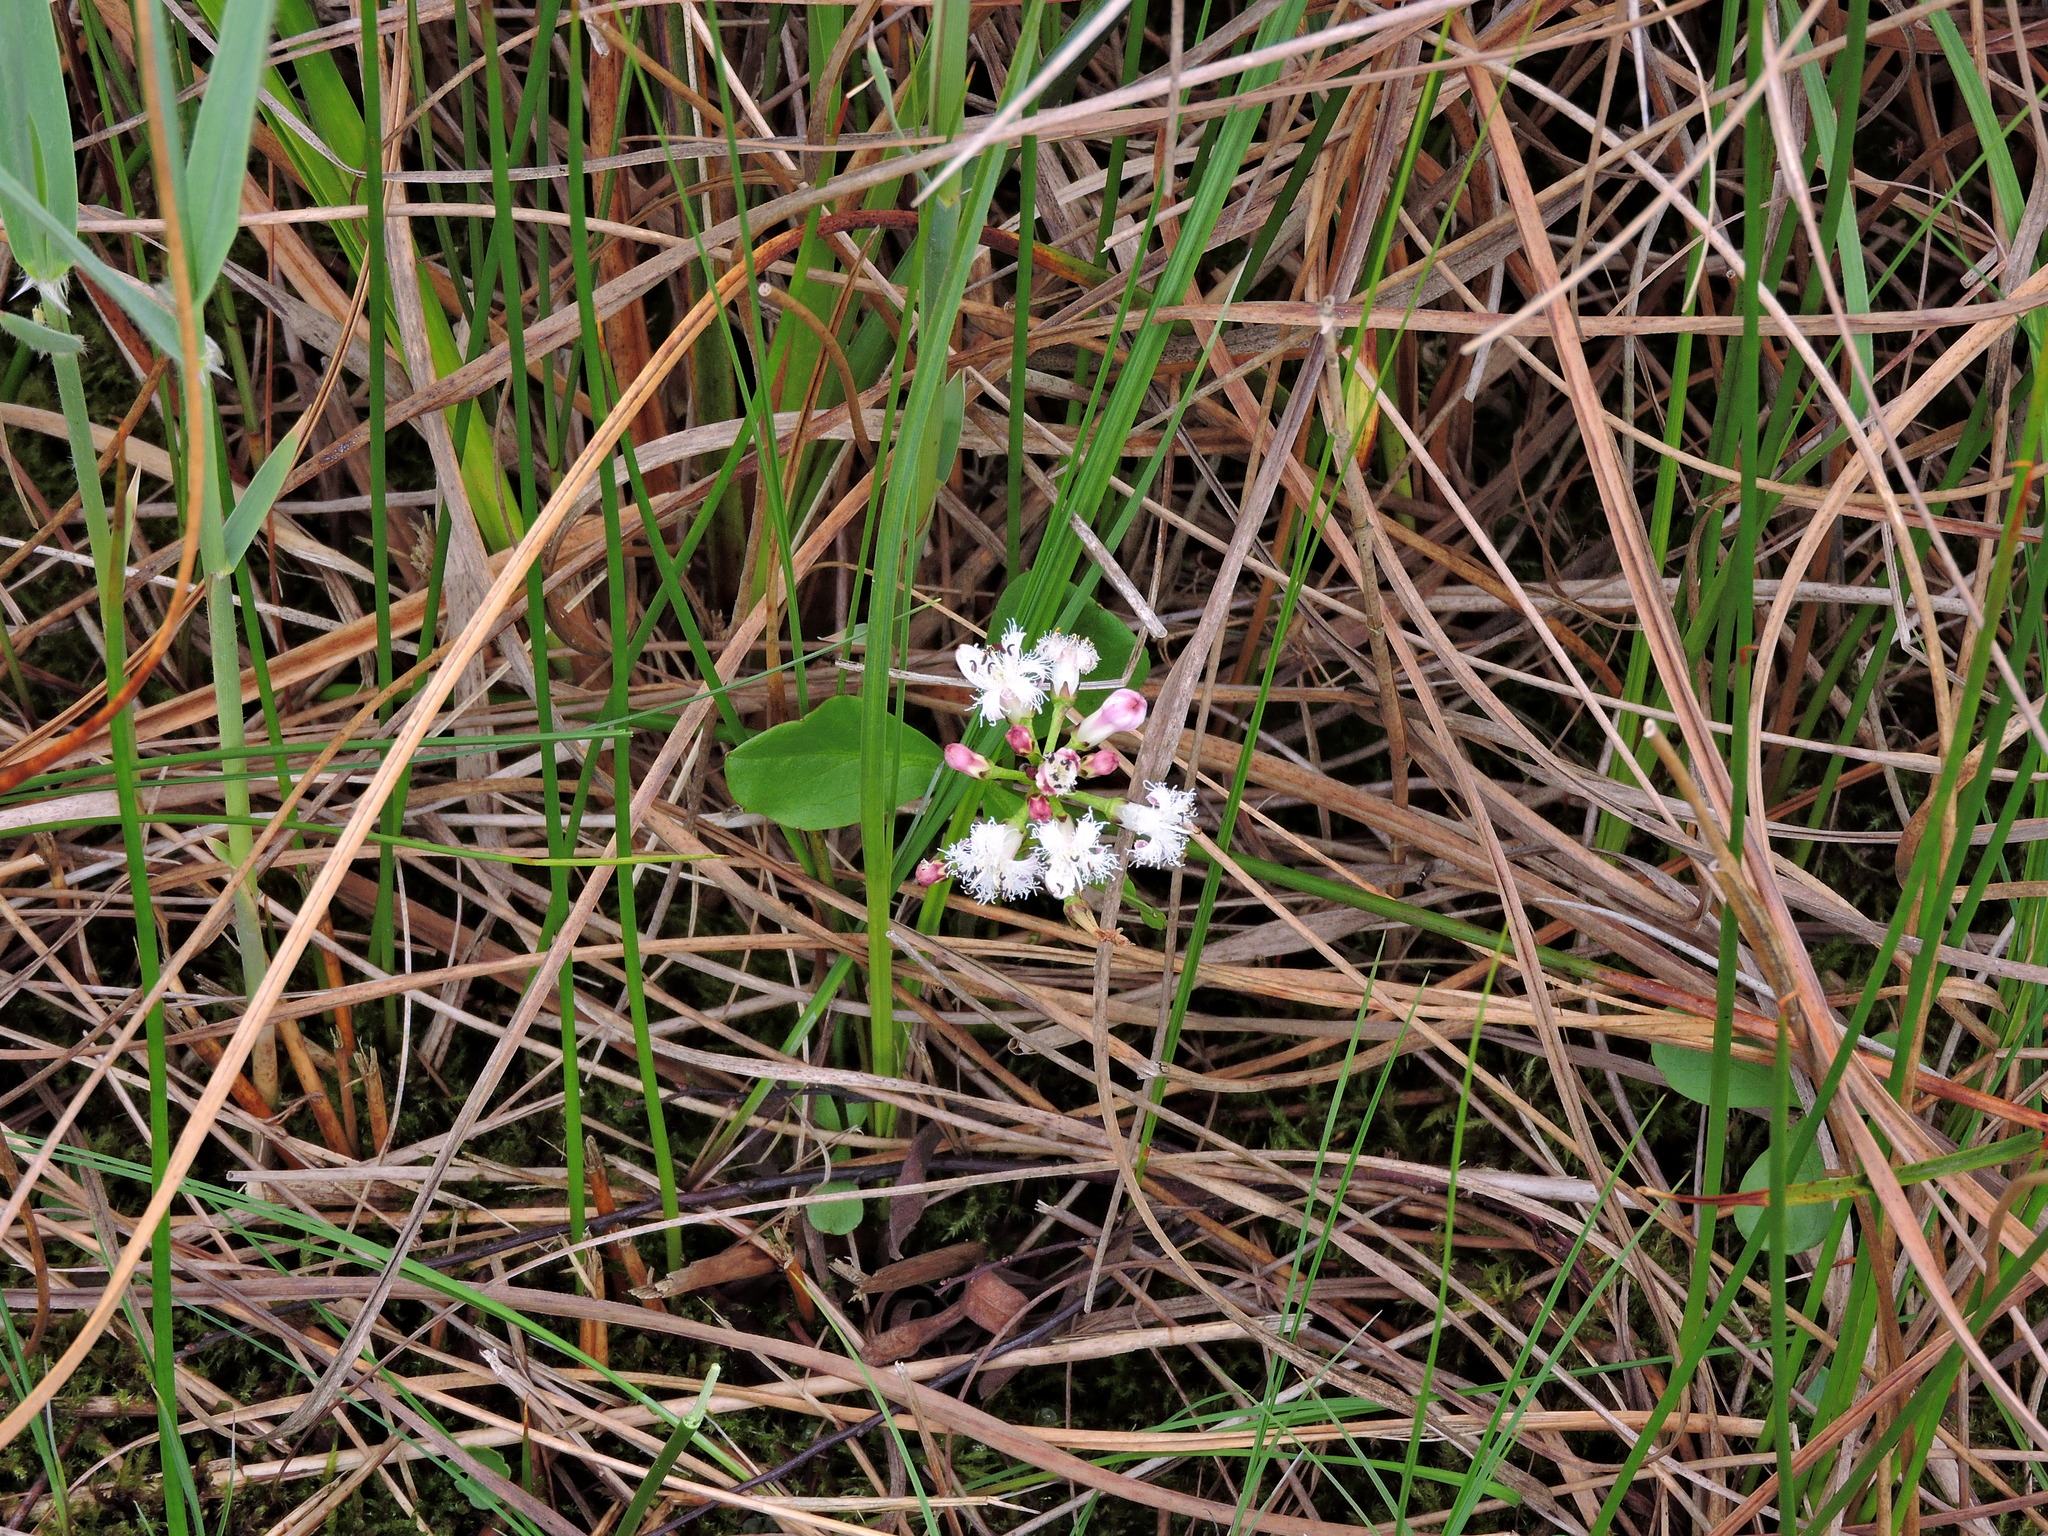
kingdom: Plantae
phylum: Tracheophyta
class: Magnoliopsida
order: Asterales
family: Menyanthaceae
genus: Menyanthes
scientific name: Menyanthes trifoliata
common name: Bogbean
